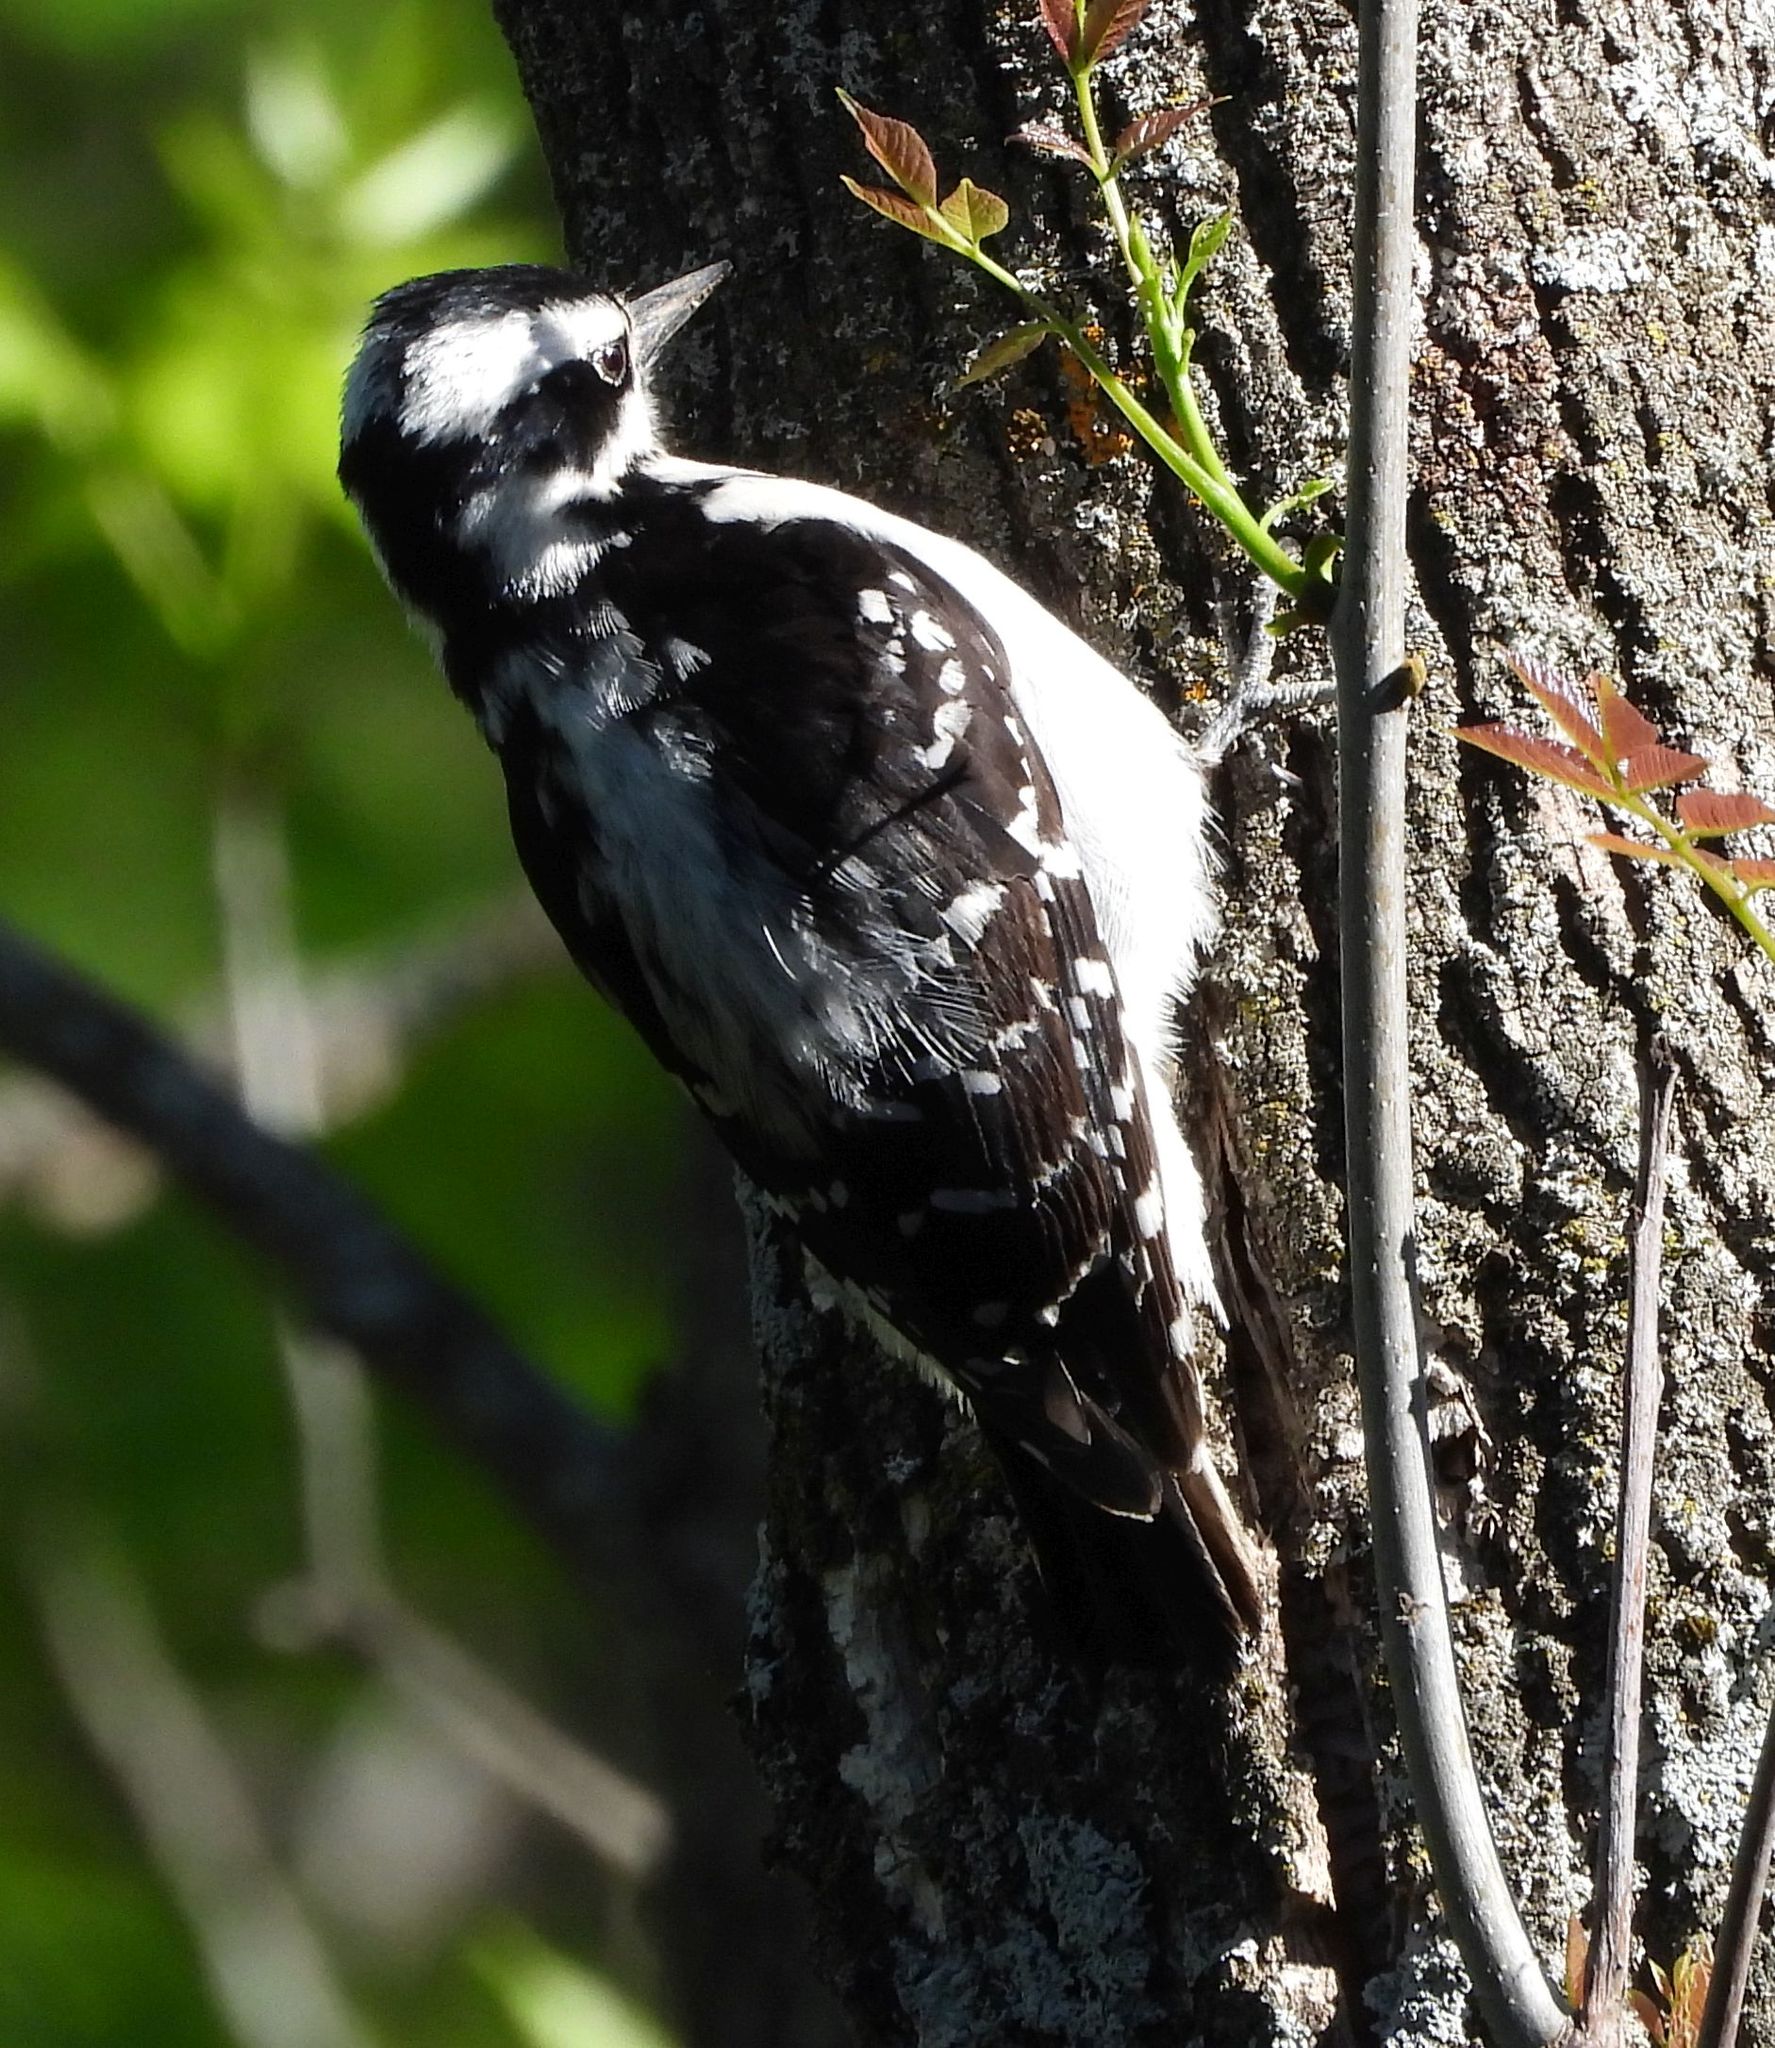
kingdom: Animalia
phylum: Chordata
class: Aves
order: Piciformes
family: Picidae
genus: Leuconotopicus
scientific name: Leuconotopicus villosus
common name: Hairy woodpecker
